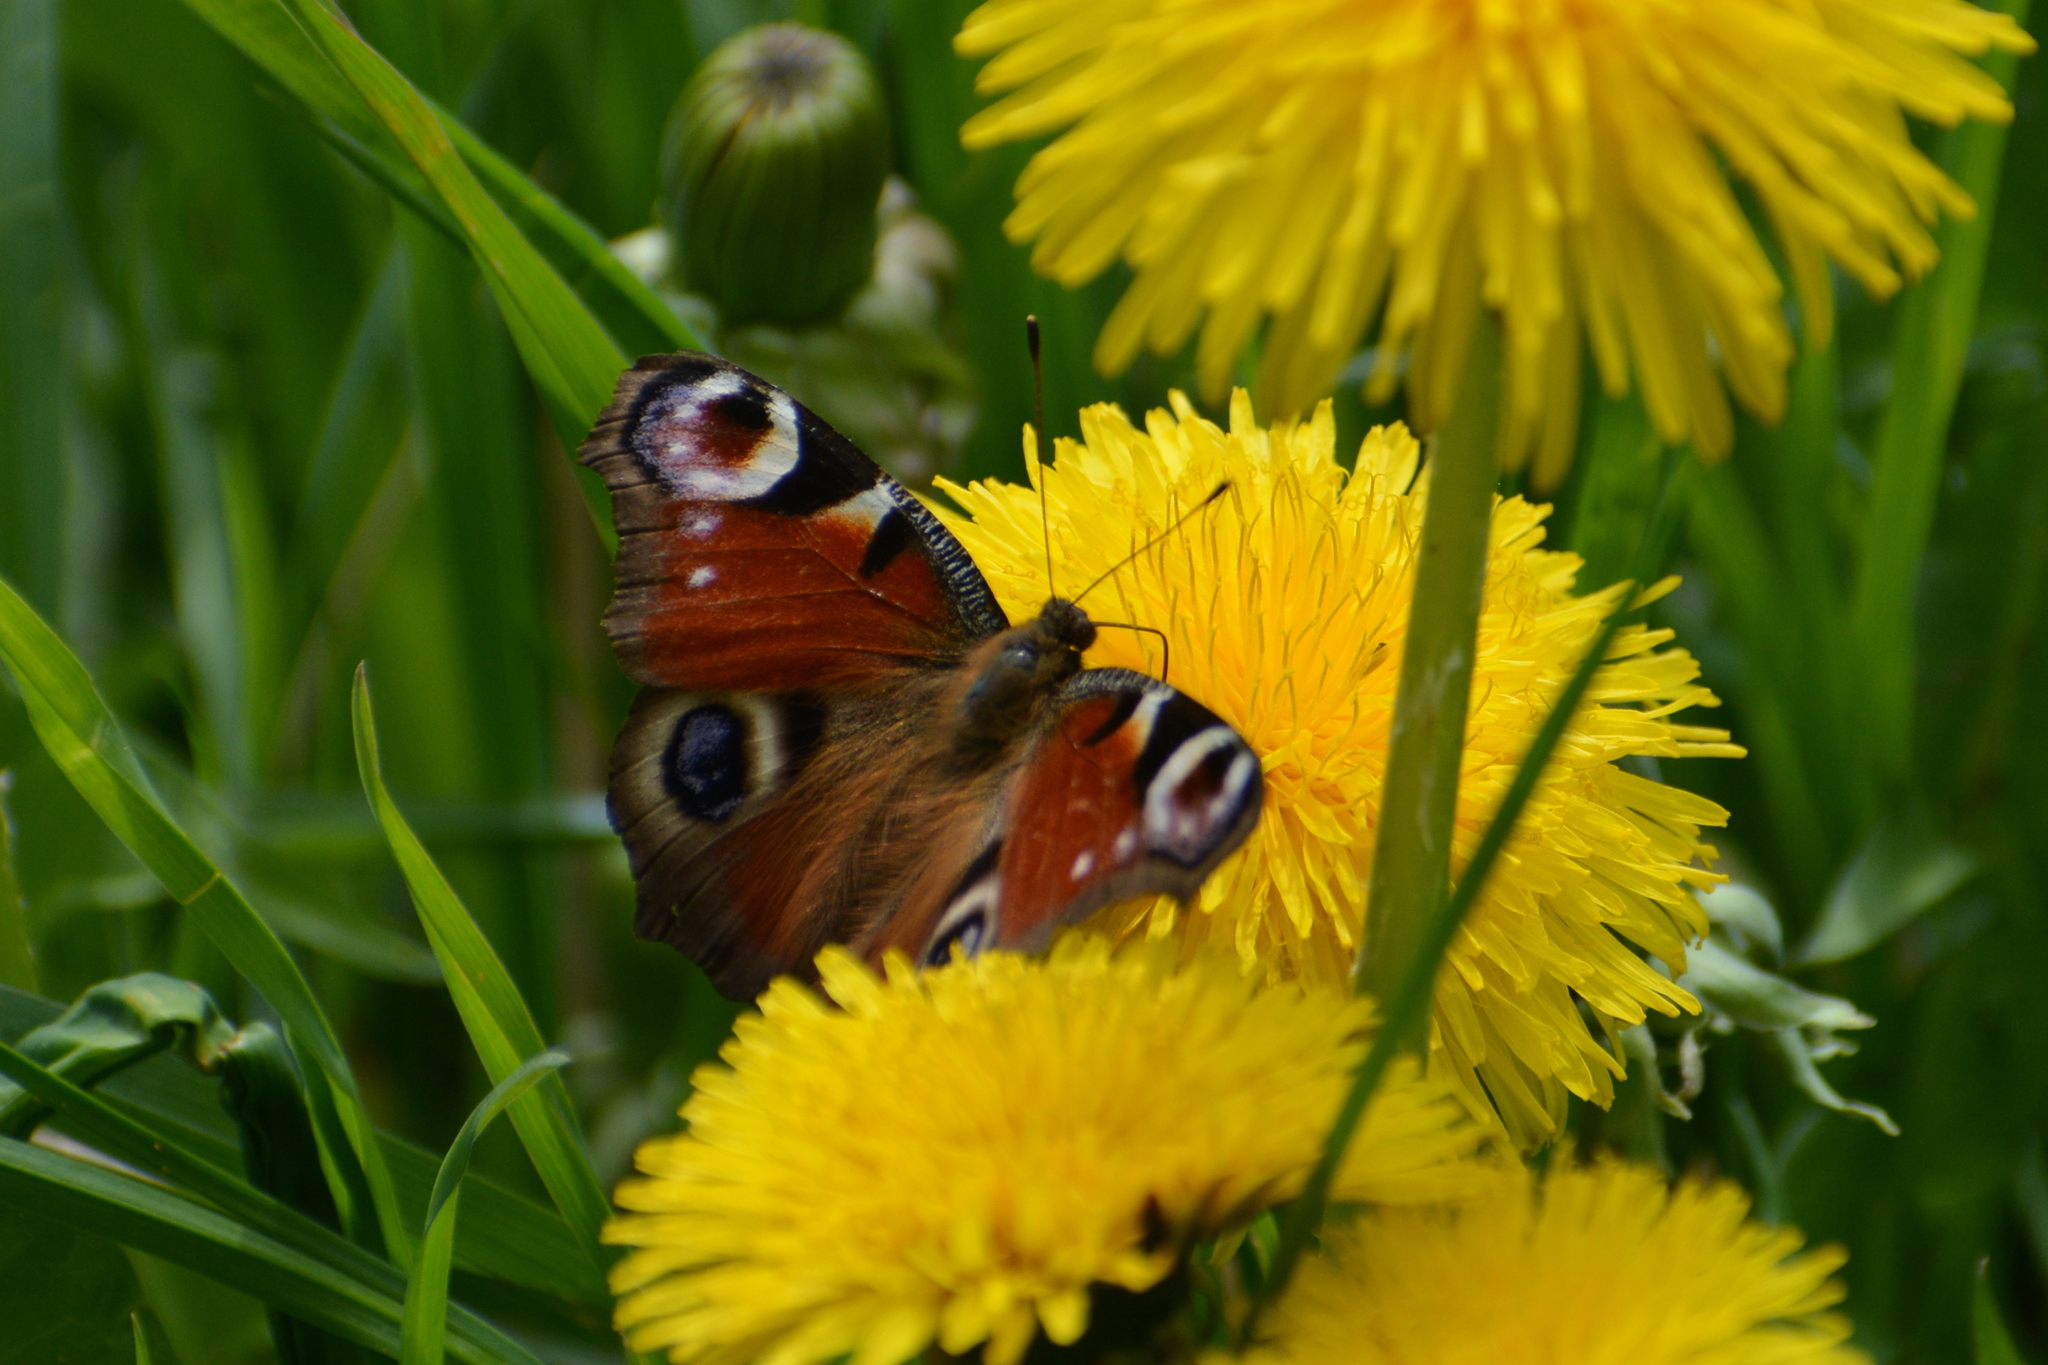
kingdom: Animalia
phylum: Arthropoda
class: Insecta
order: Lepidoptera
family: Nymphalidae
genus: Aglais
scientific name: Aglais io
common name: Peacock
